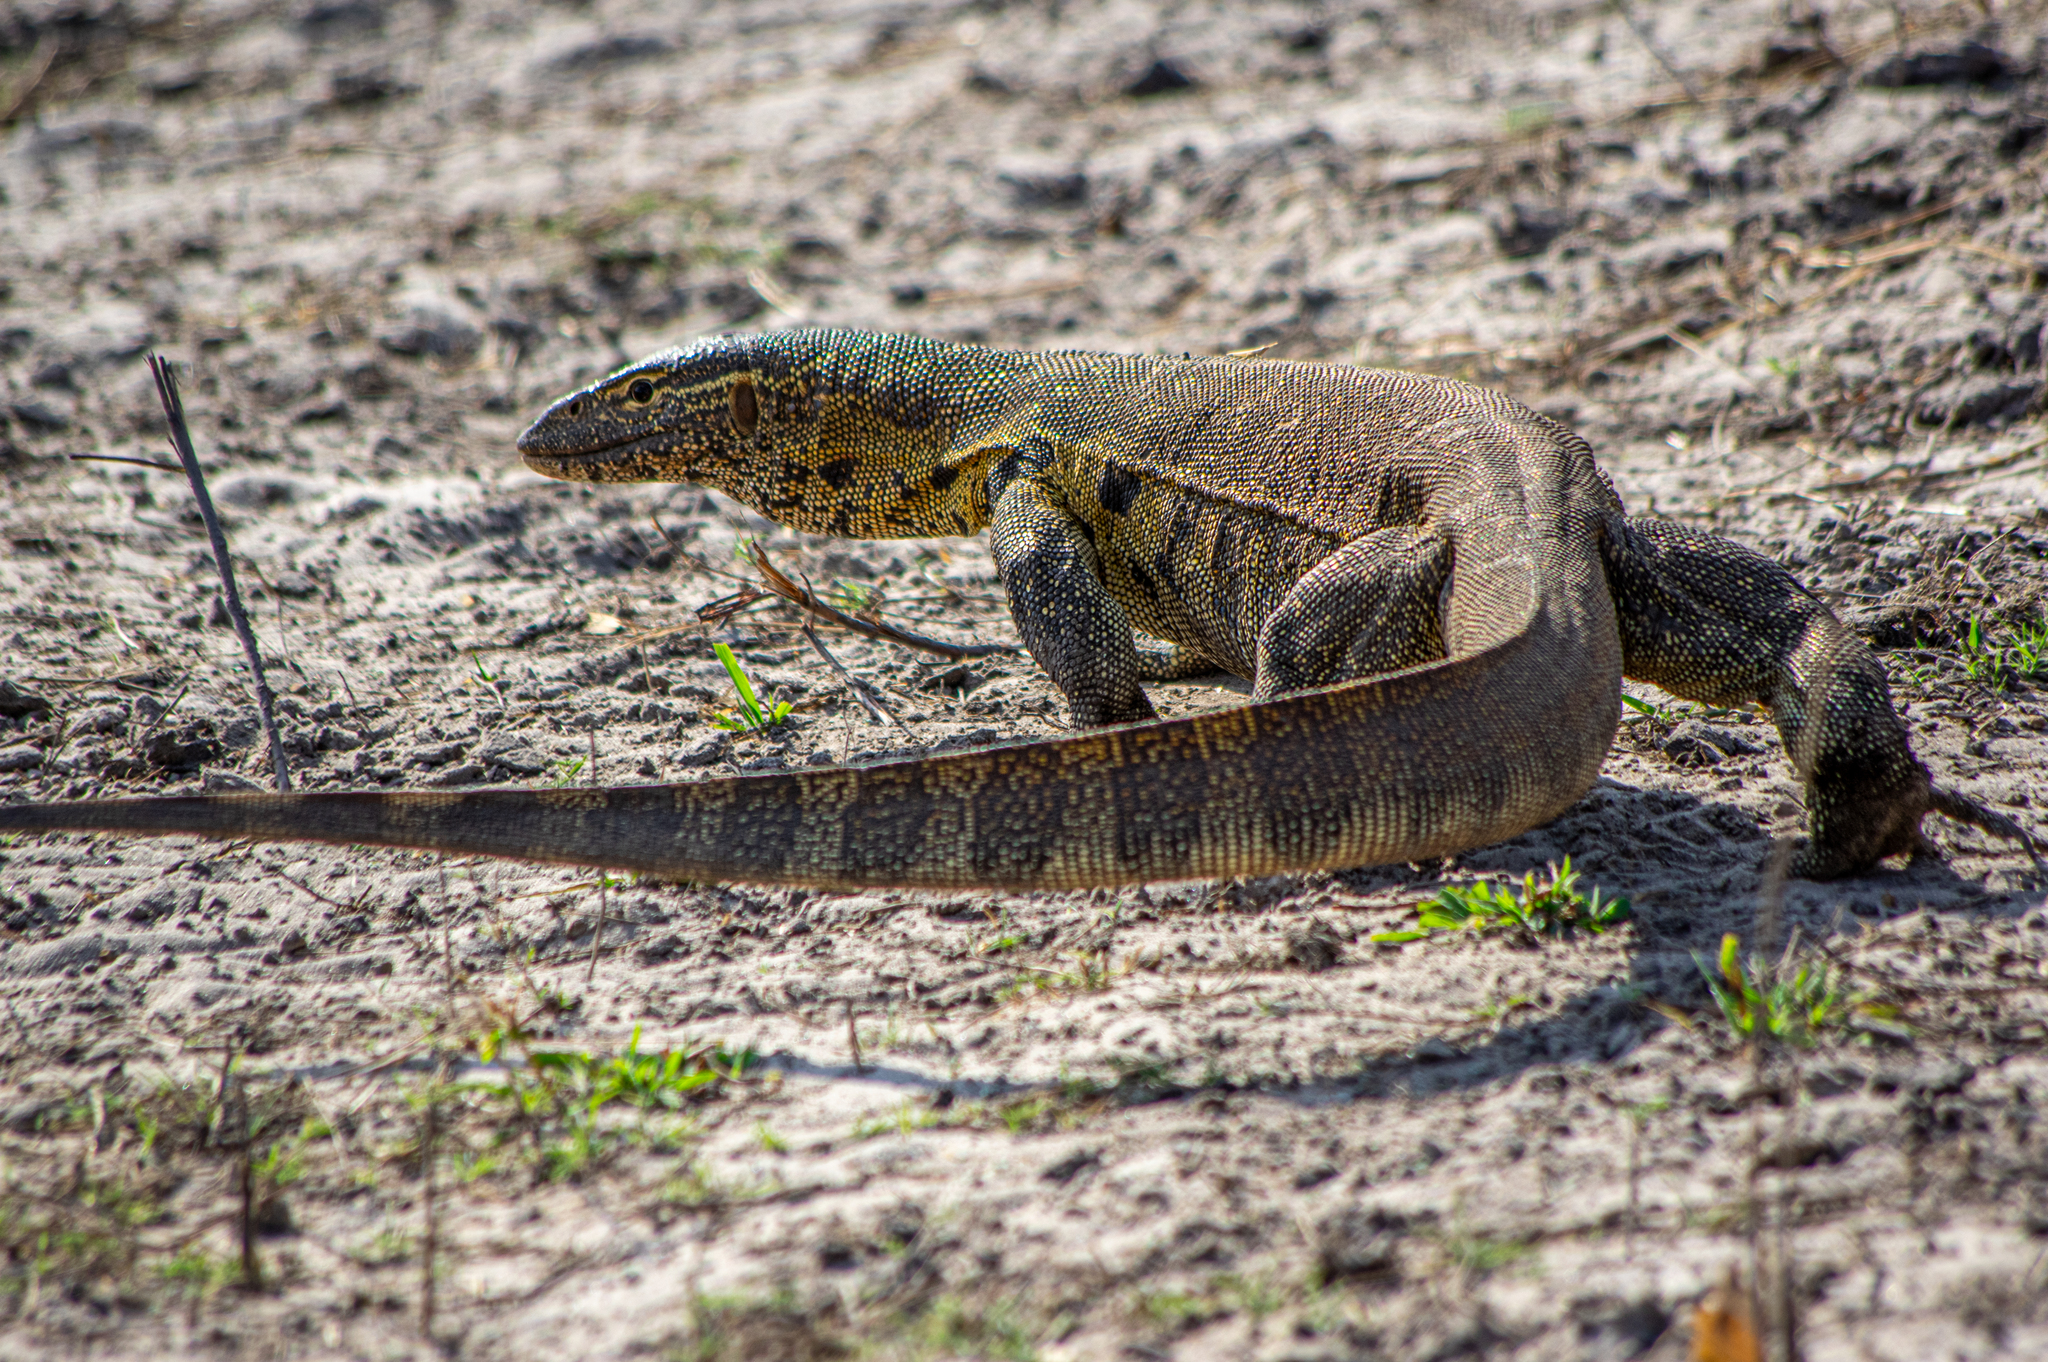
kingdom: Animalia
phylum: Chordata
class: Squamata
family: Varanidae
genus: Varanus
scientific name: Varanus niloticus
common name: Nile monitor
